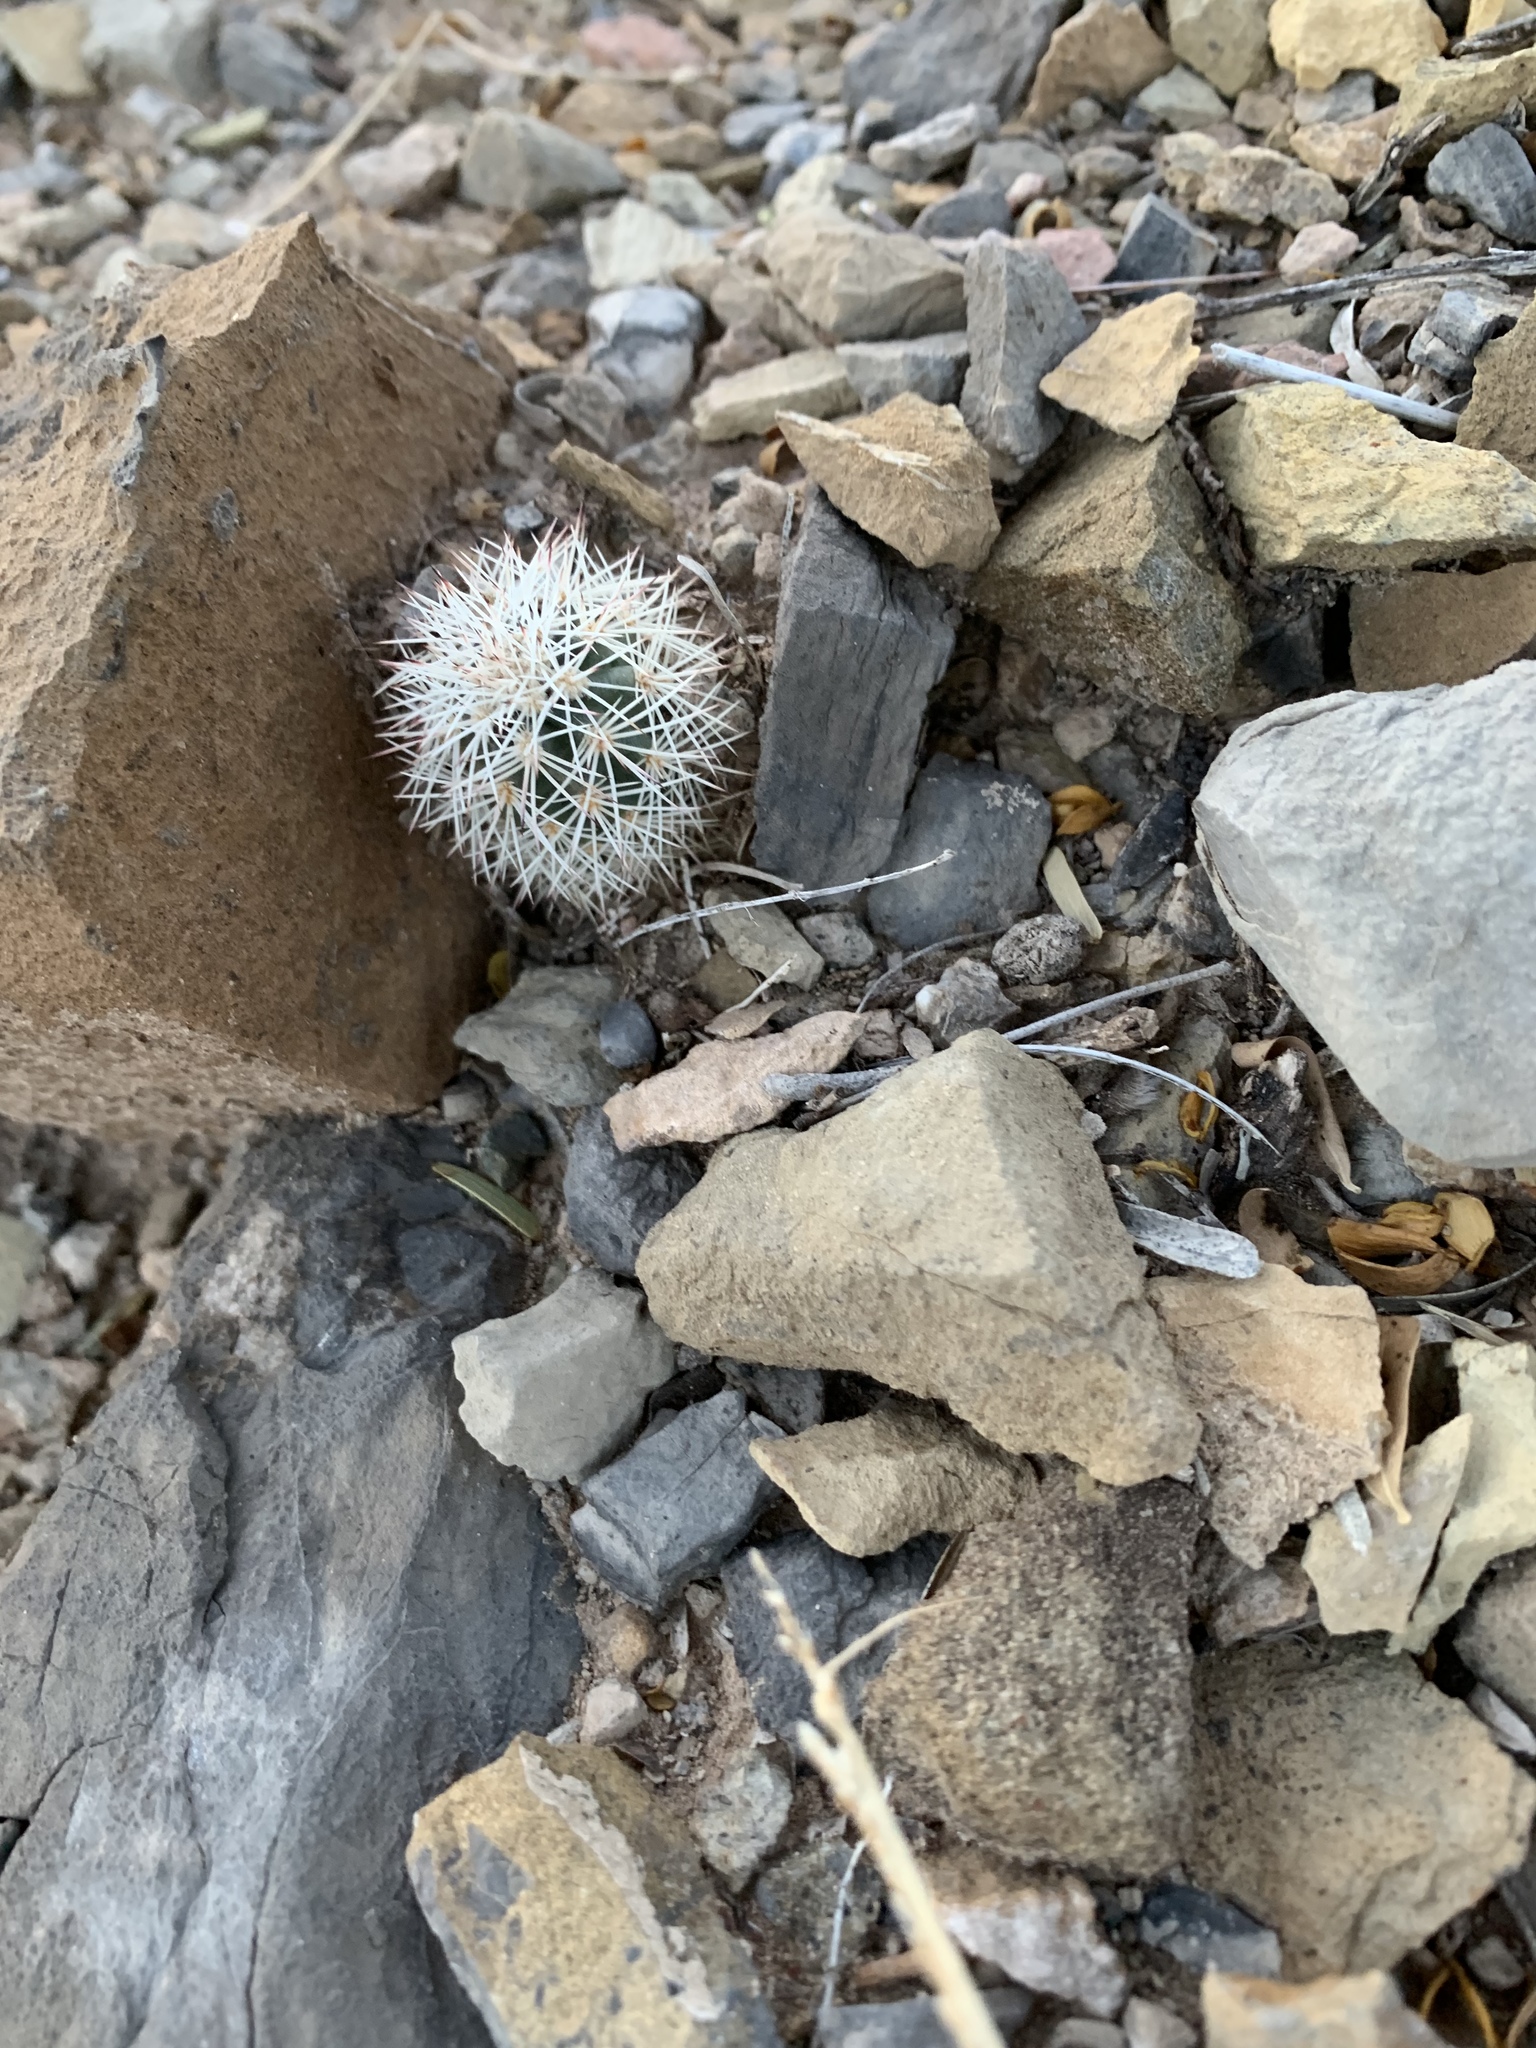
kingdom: Plantae
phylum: Tracheophyta
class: Magnoliopsida
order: Caryophyllales
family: Cactaceae
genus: Echinocereus
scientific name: Echinocereus dasyacanthus
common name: Spiny hedgehog cactus
